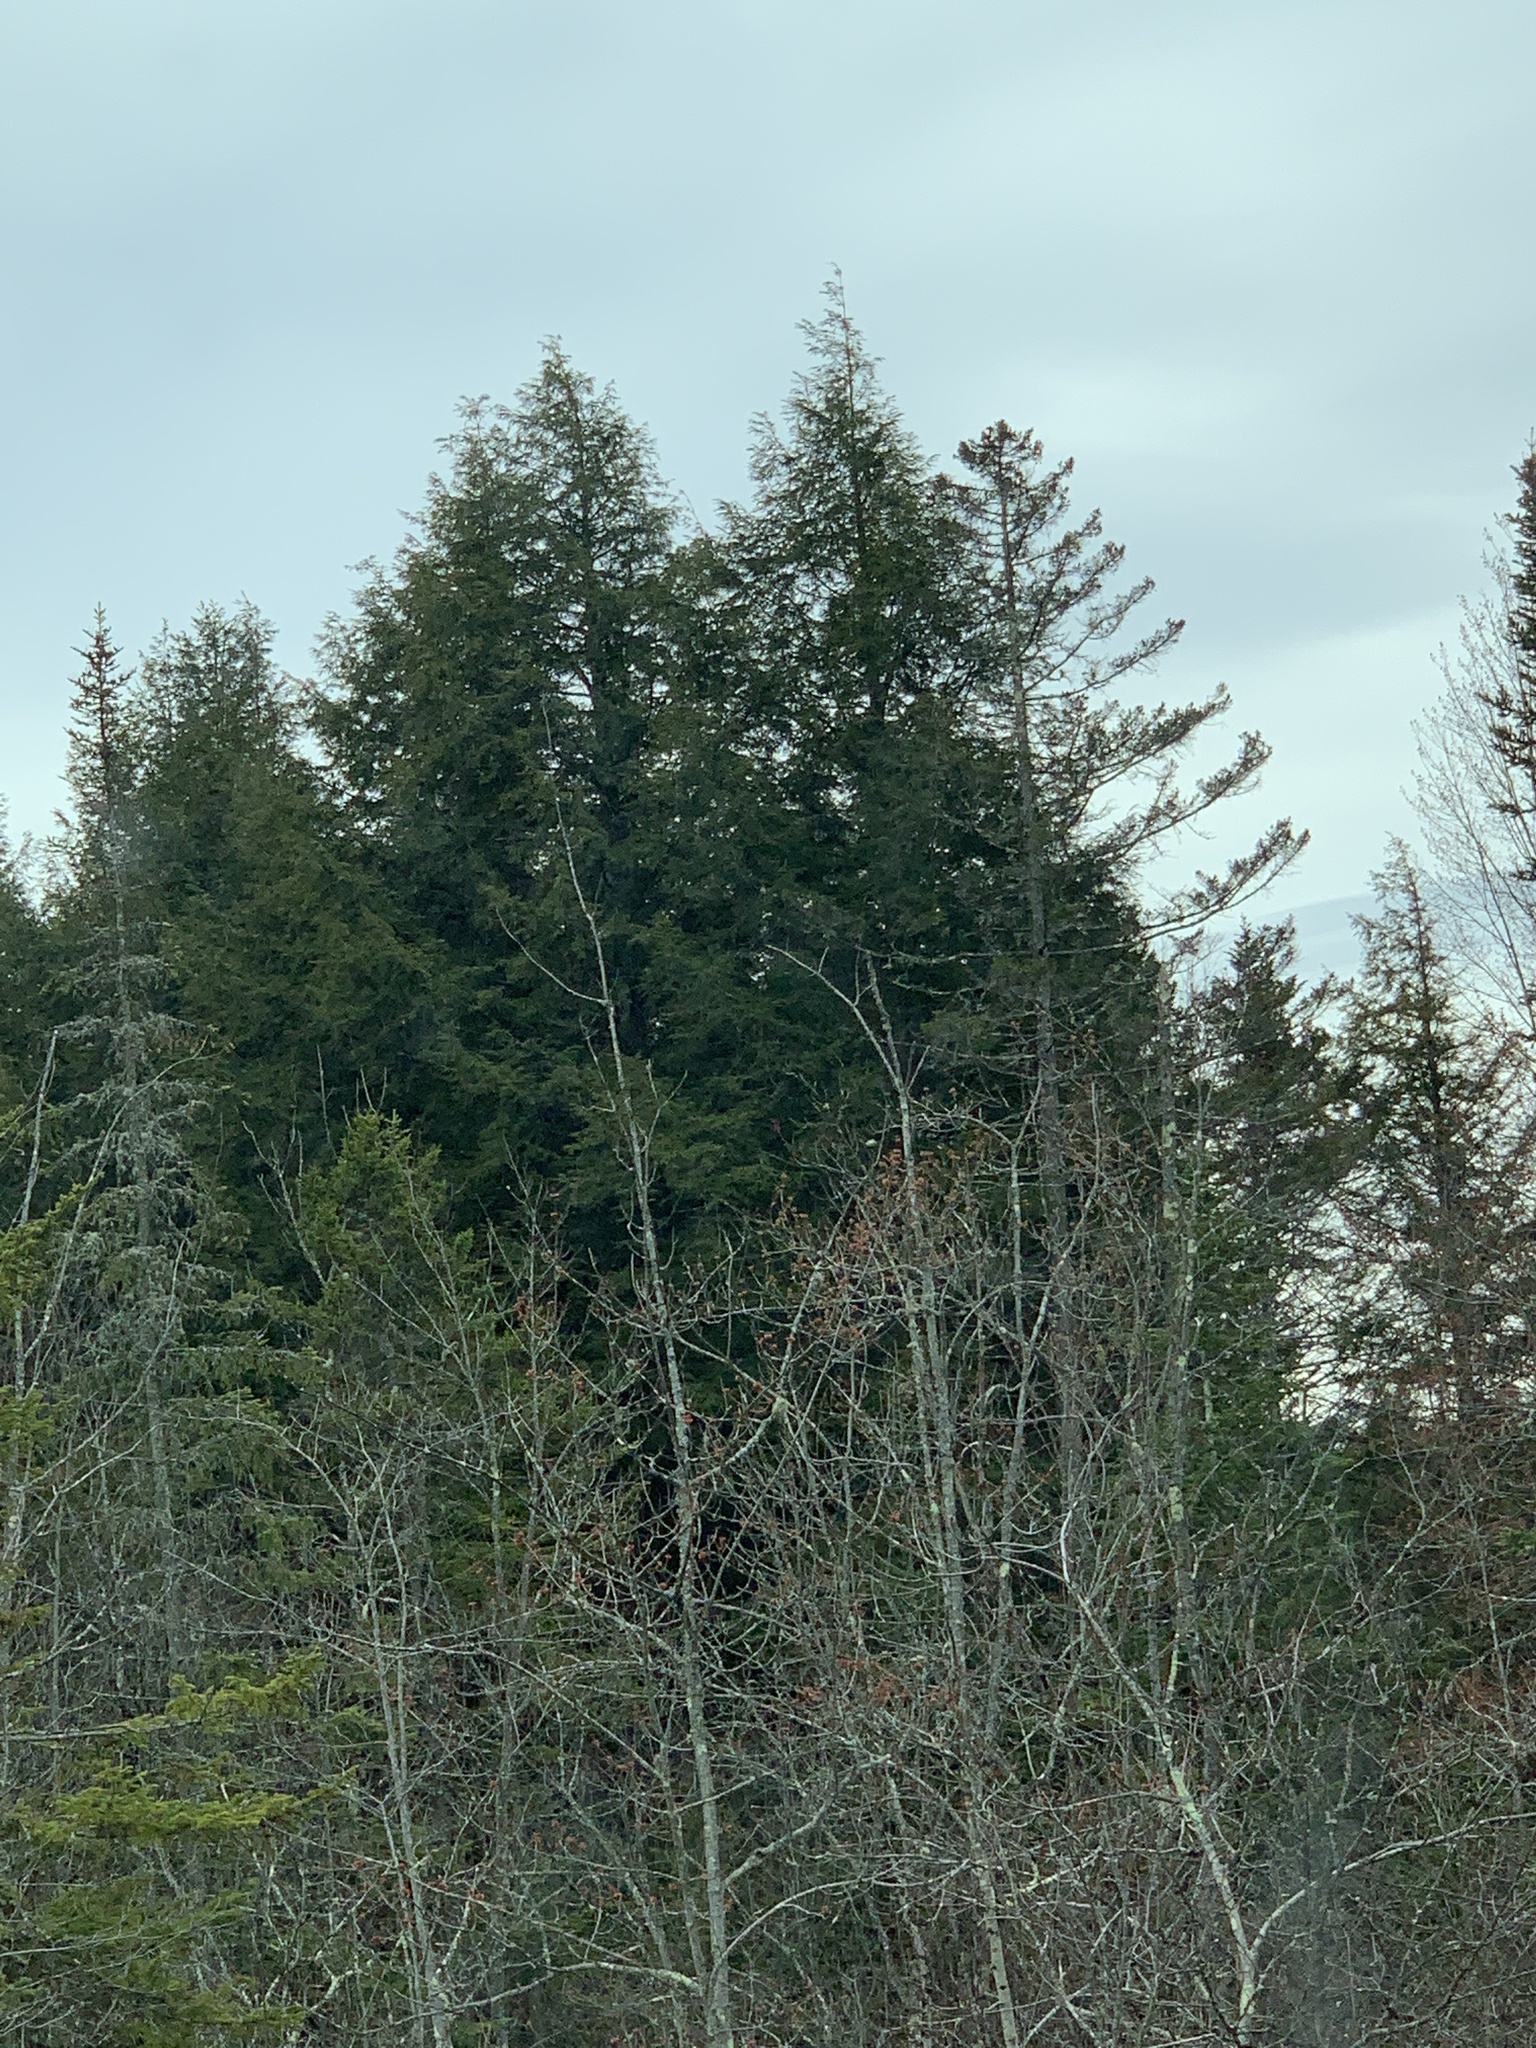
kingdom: Plantae
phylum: Tracheophyta
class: Pinopsida
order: Pinales
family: Pinaceae
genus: Tsuga
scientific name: Tsuga canadensis
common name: Eastern hemlock
